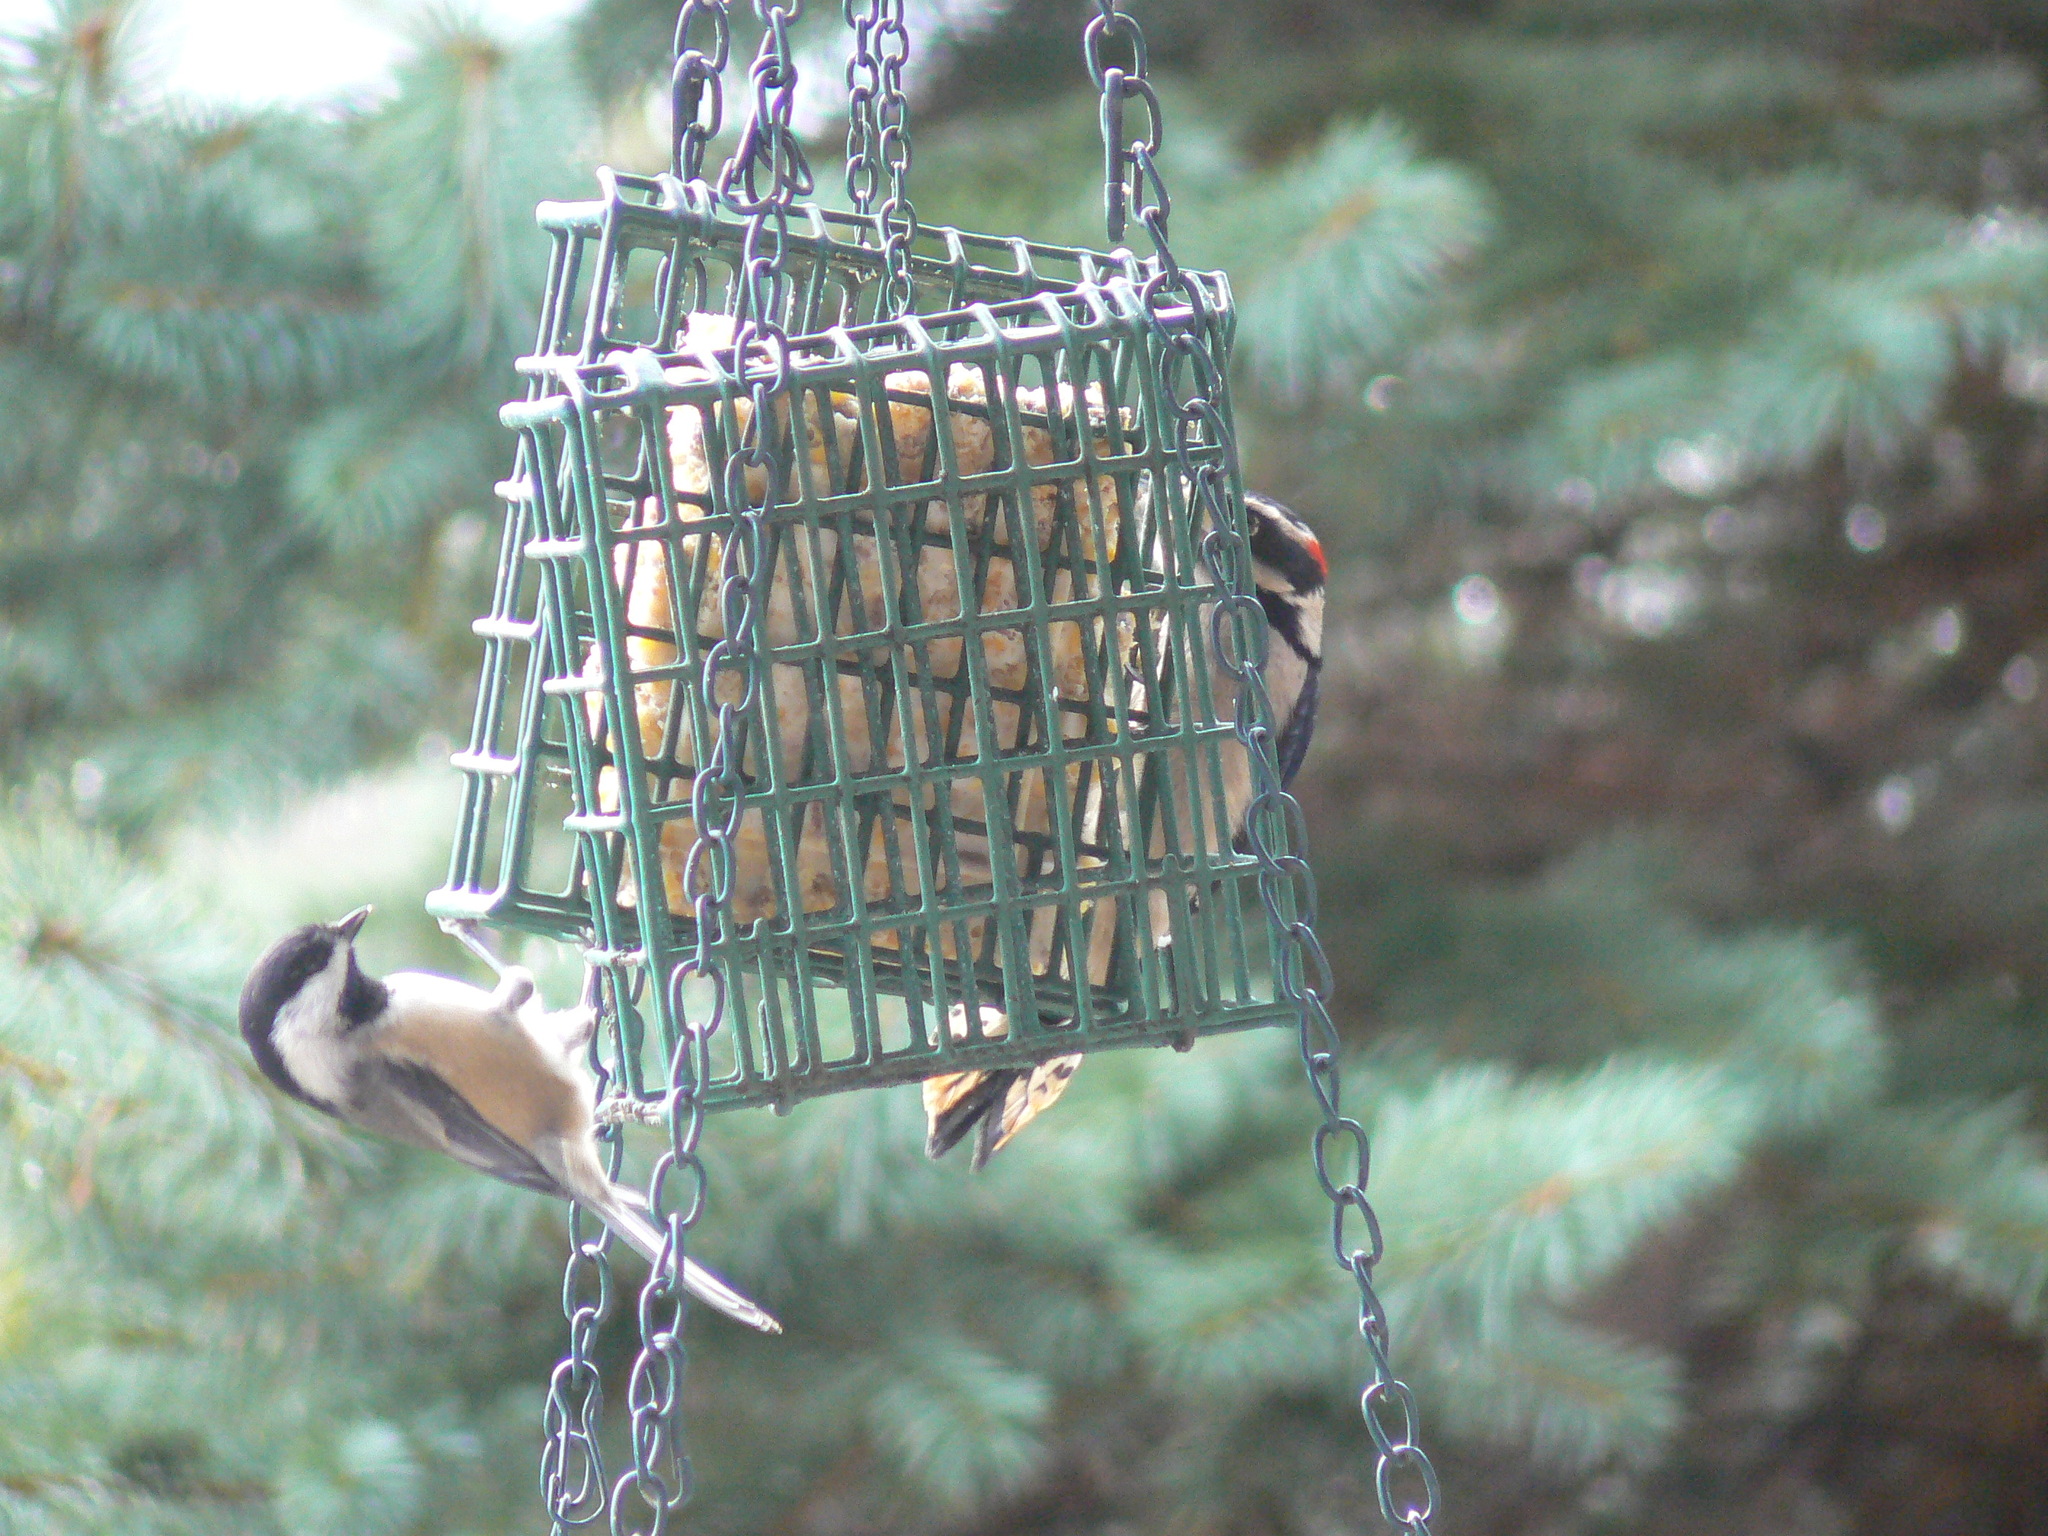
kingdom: Animalia
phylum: Chordata
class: Aves
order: Piciformes
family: Picidae
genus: Dryobates
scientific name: Dryobates pubescens
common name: Downy woodpecker
